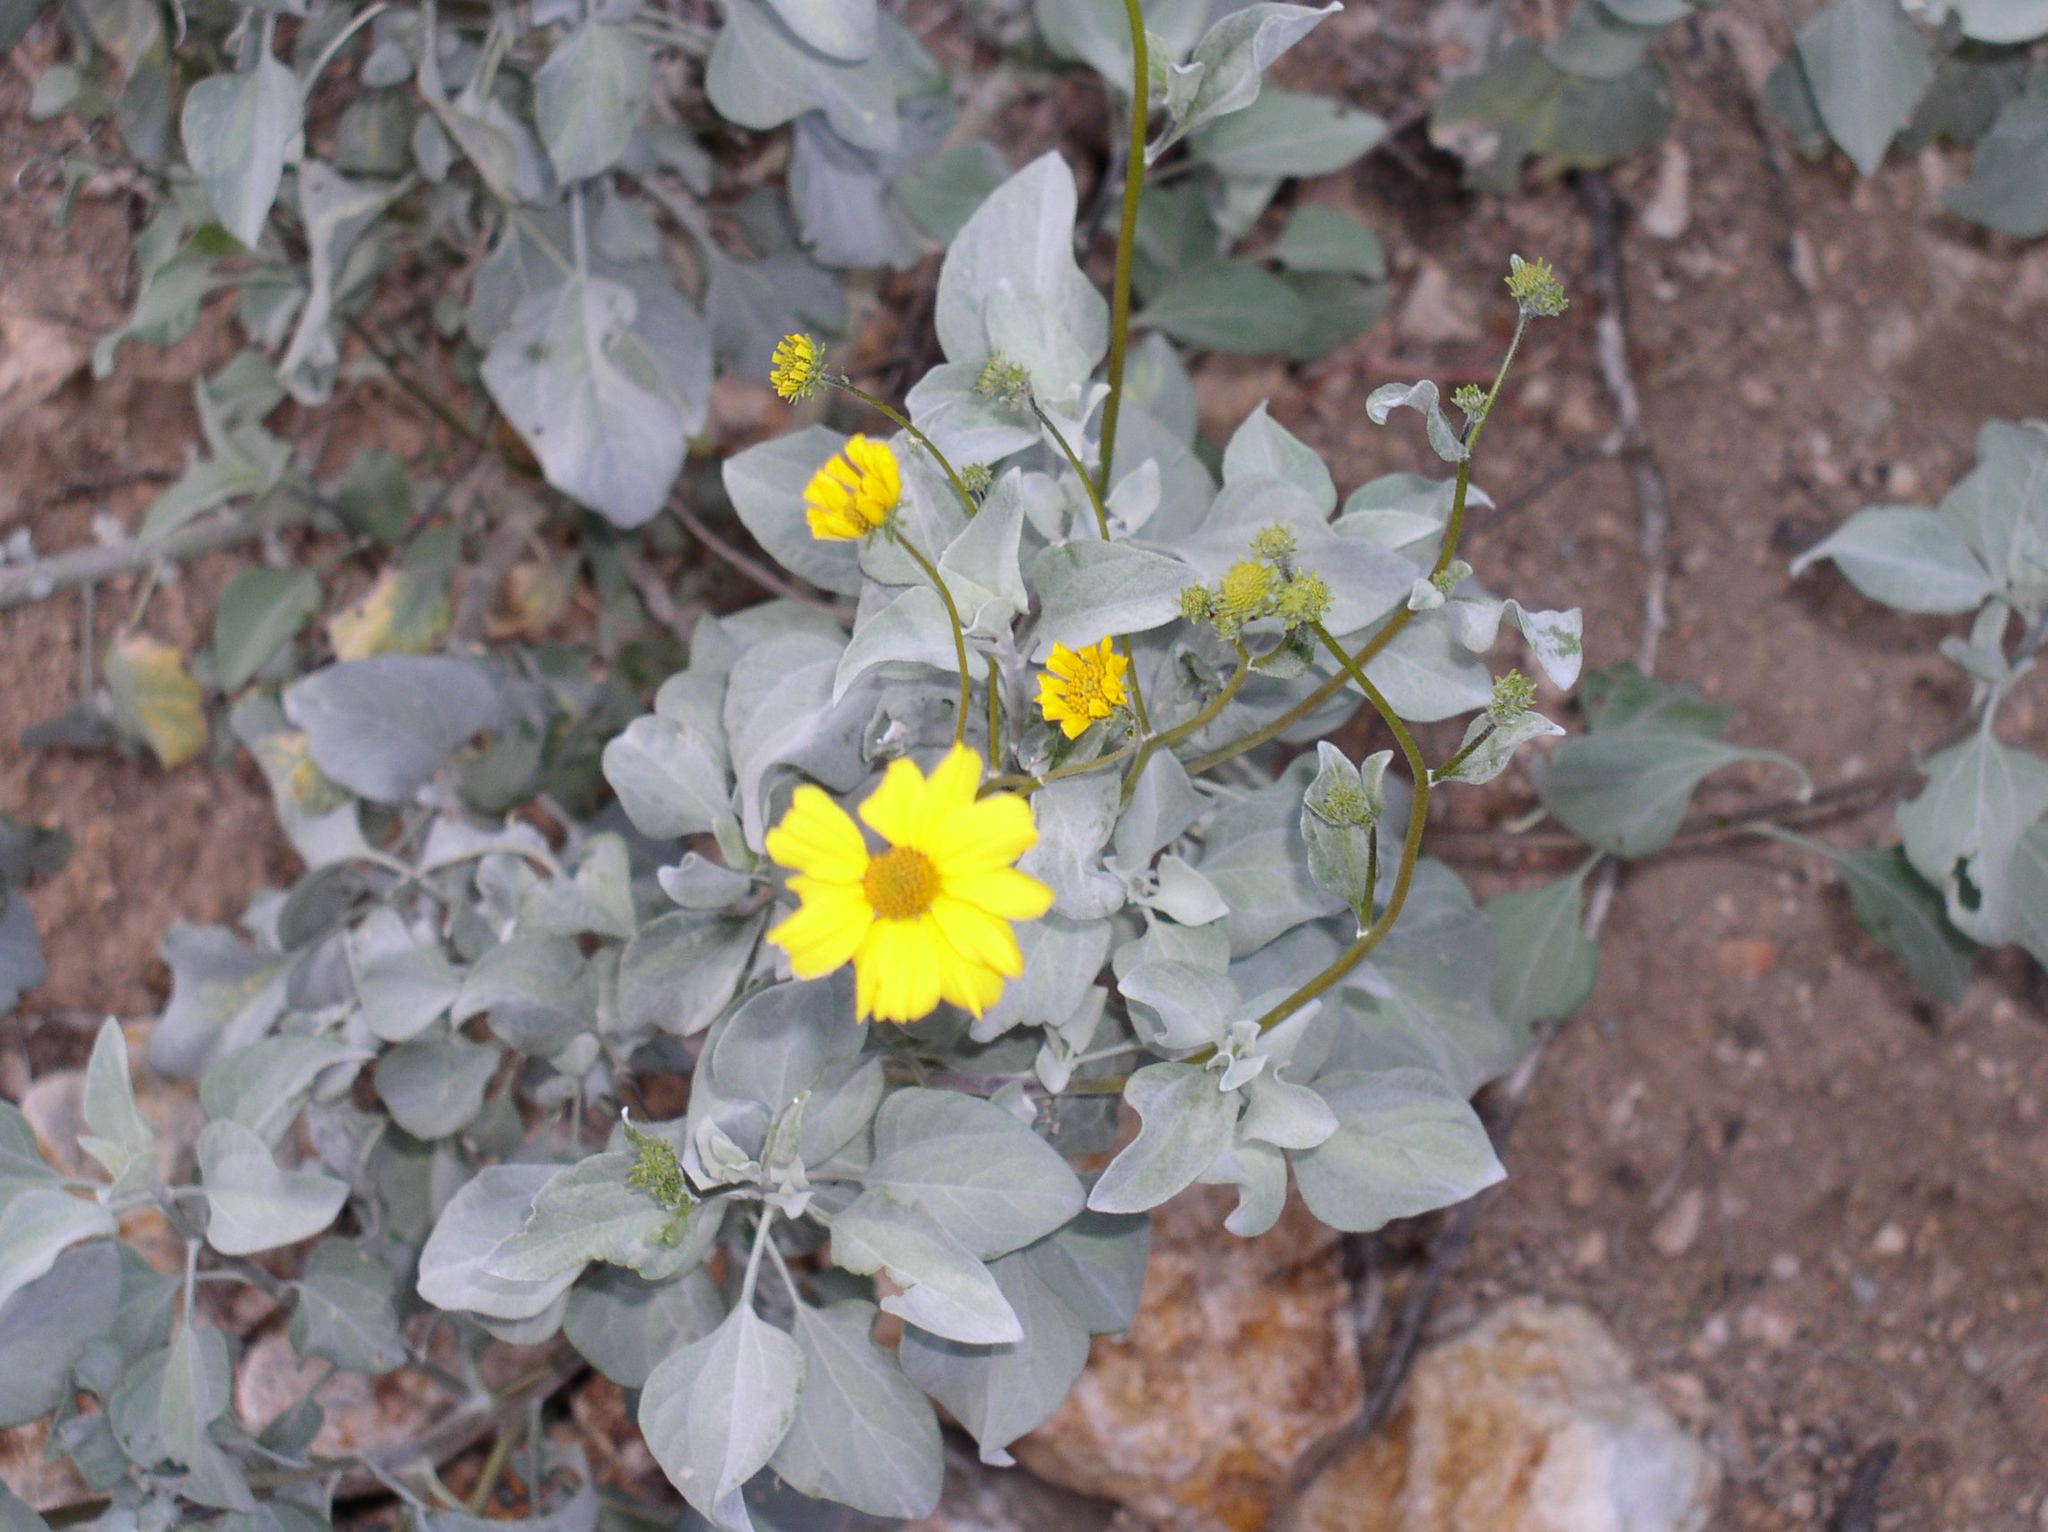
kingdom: Plantae
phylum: Tracheophyta
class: Magnoliopsida
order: Asterales
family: Asteraceae
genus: Encelia
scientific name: Encelia farinosa
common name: Brittlebush
